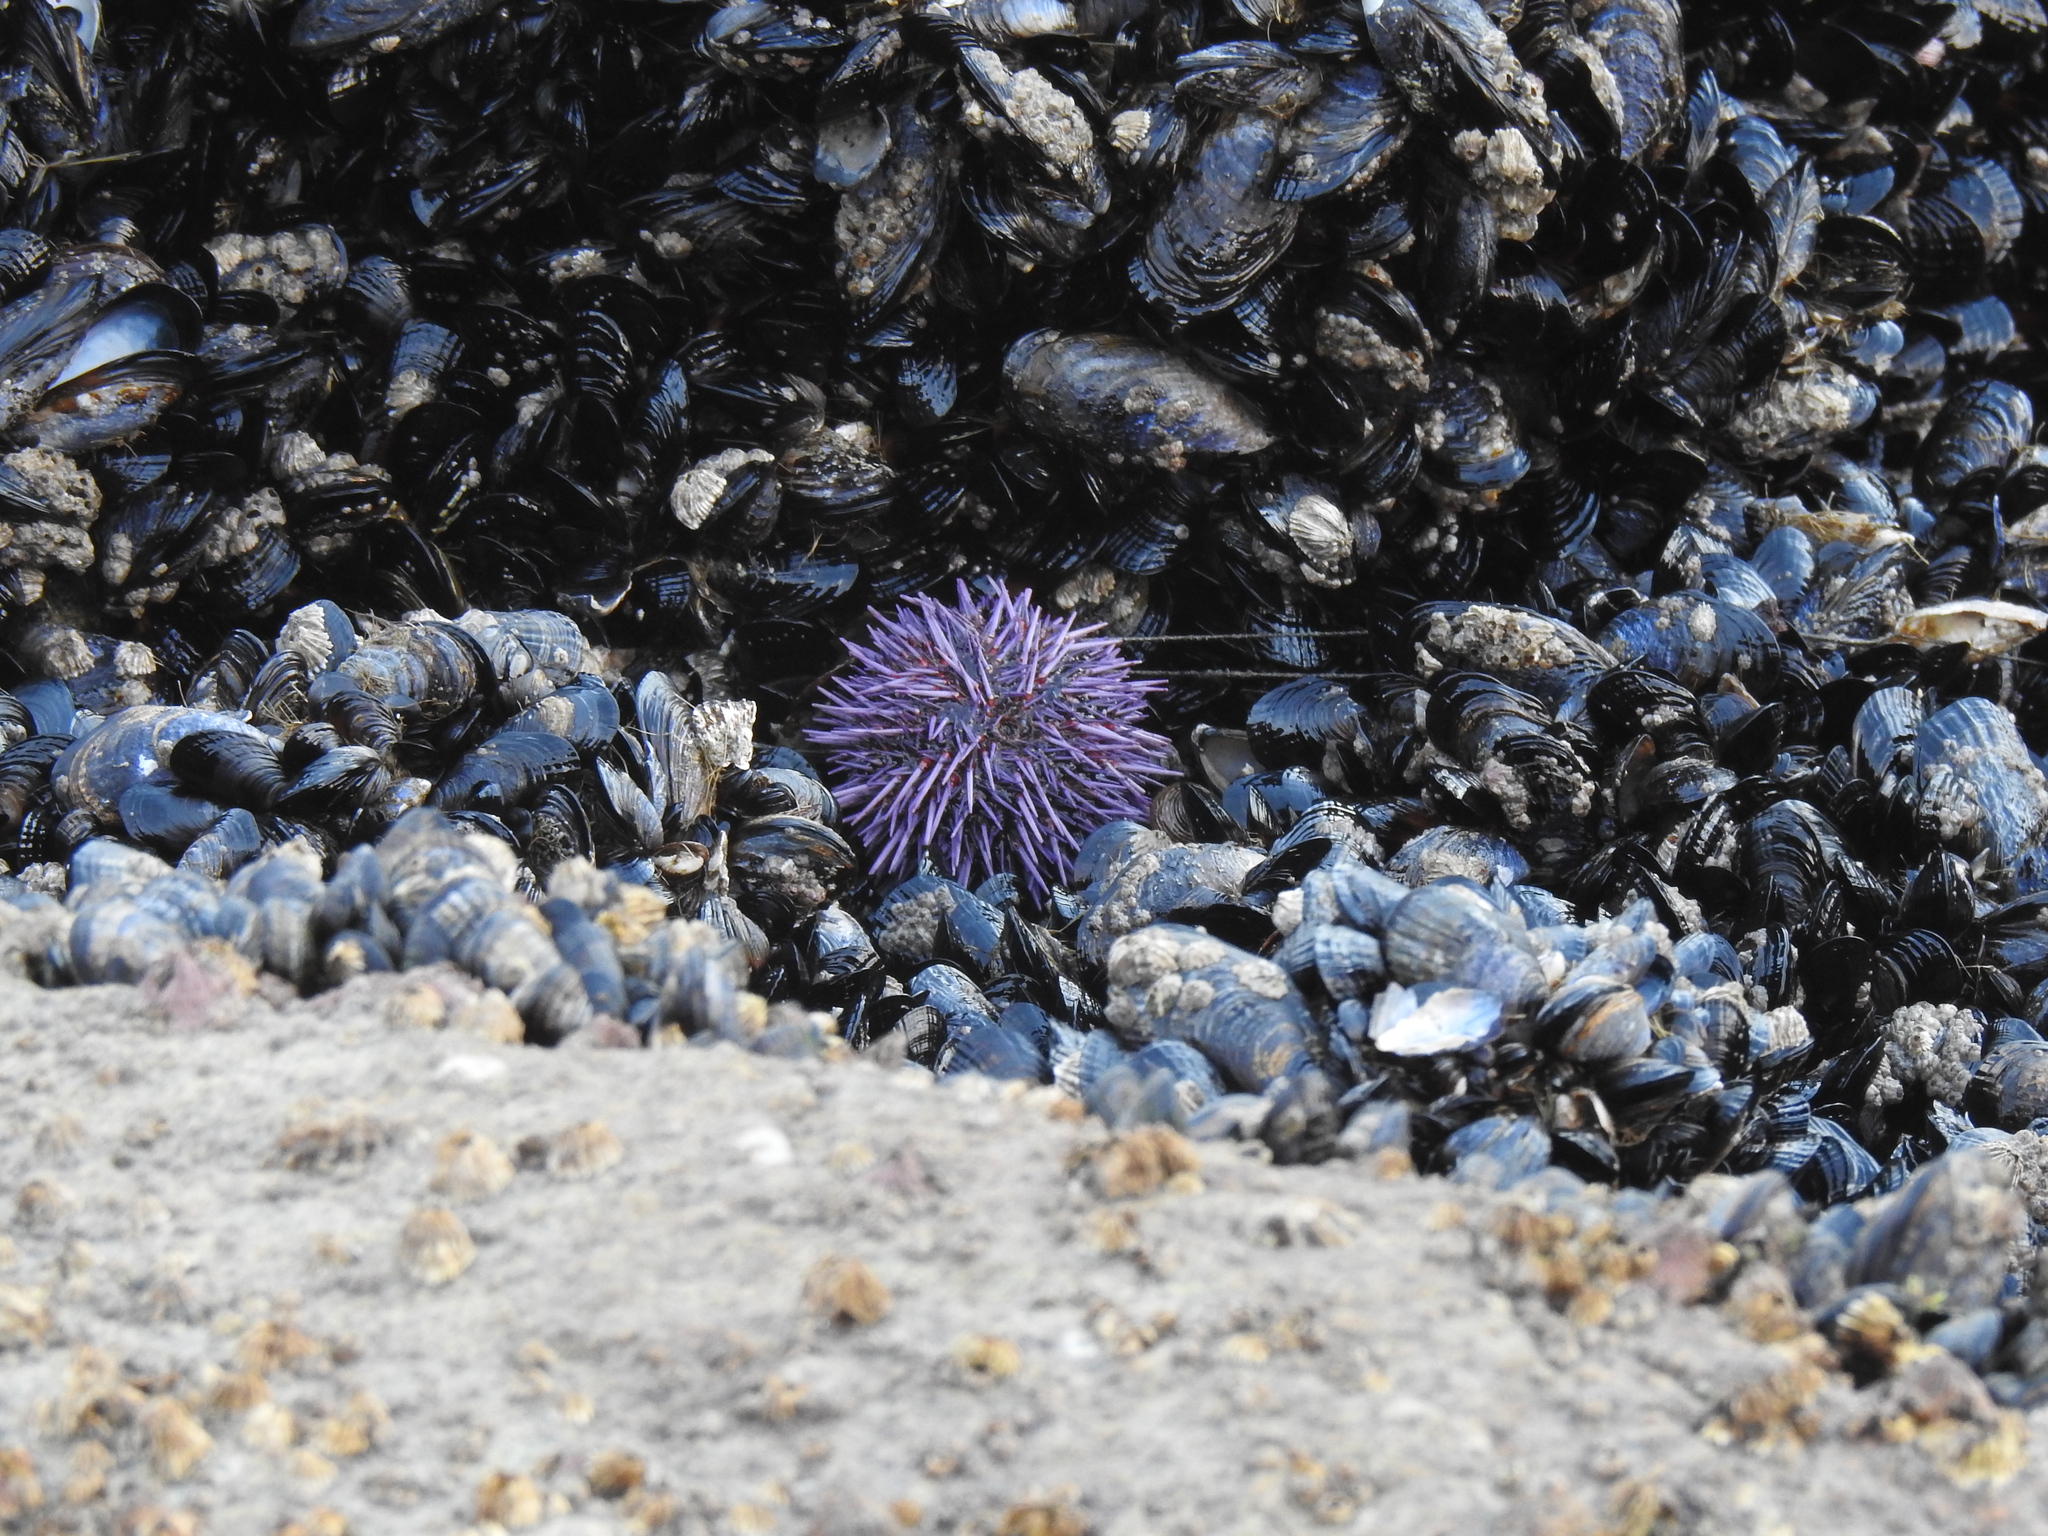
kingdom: Animalia
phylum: Echinodermata
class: Echinoidea
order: Camarodonta
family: Strongylocentrotidae
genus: Strongylocentrotus
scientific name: Strongylocentrotus purpuratus
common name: Purple sea urchin
